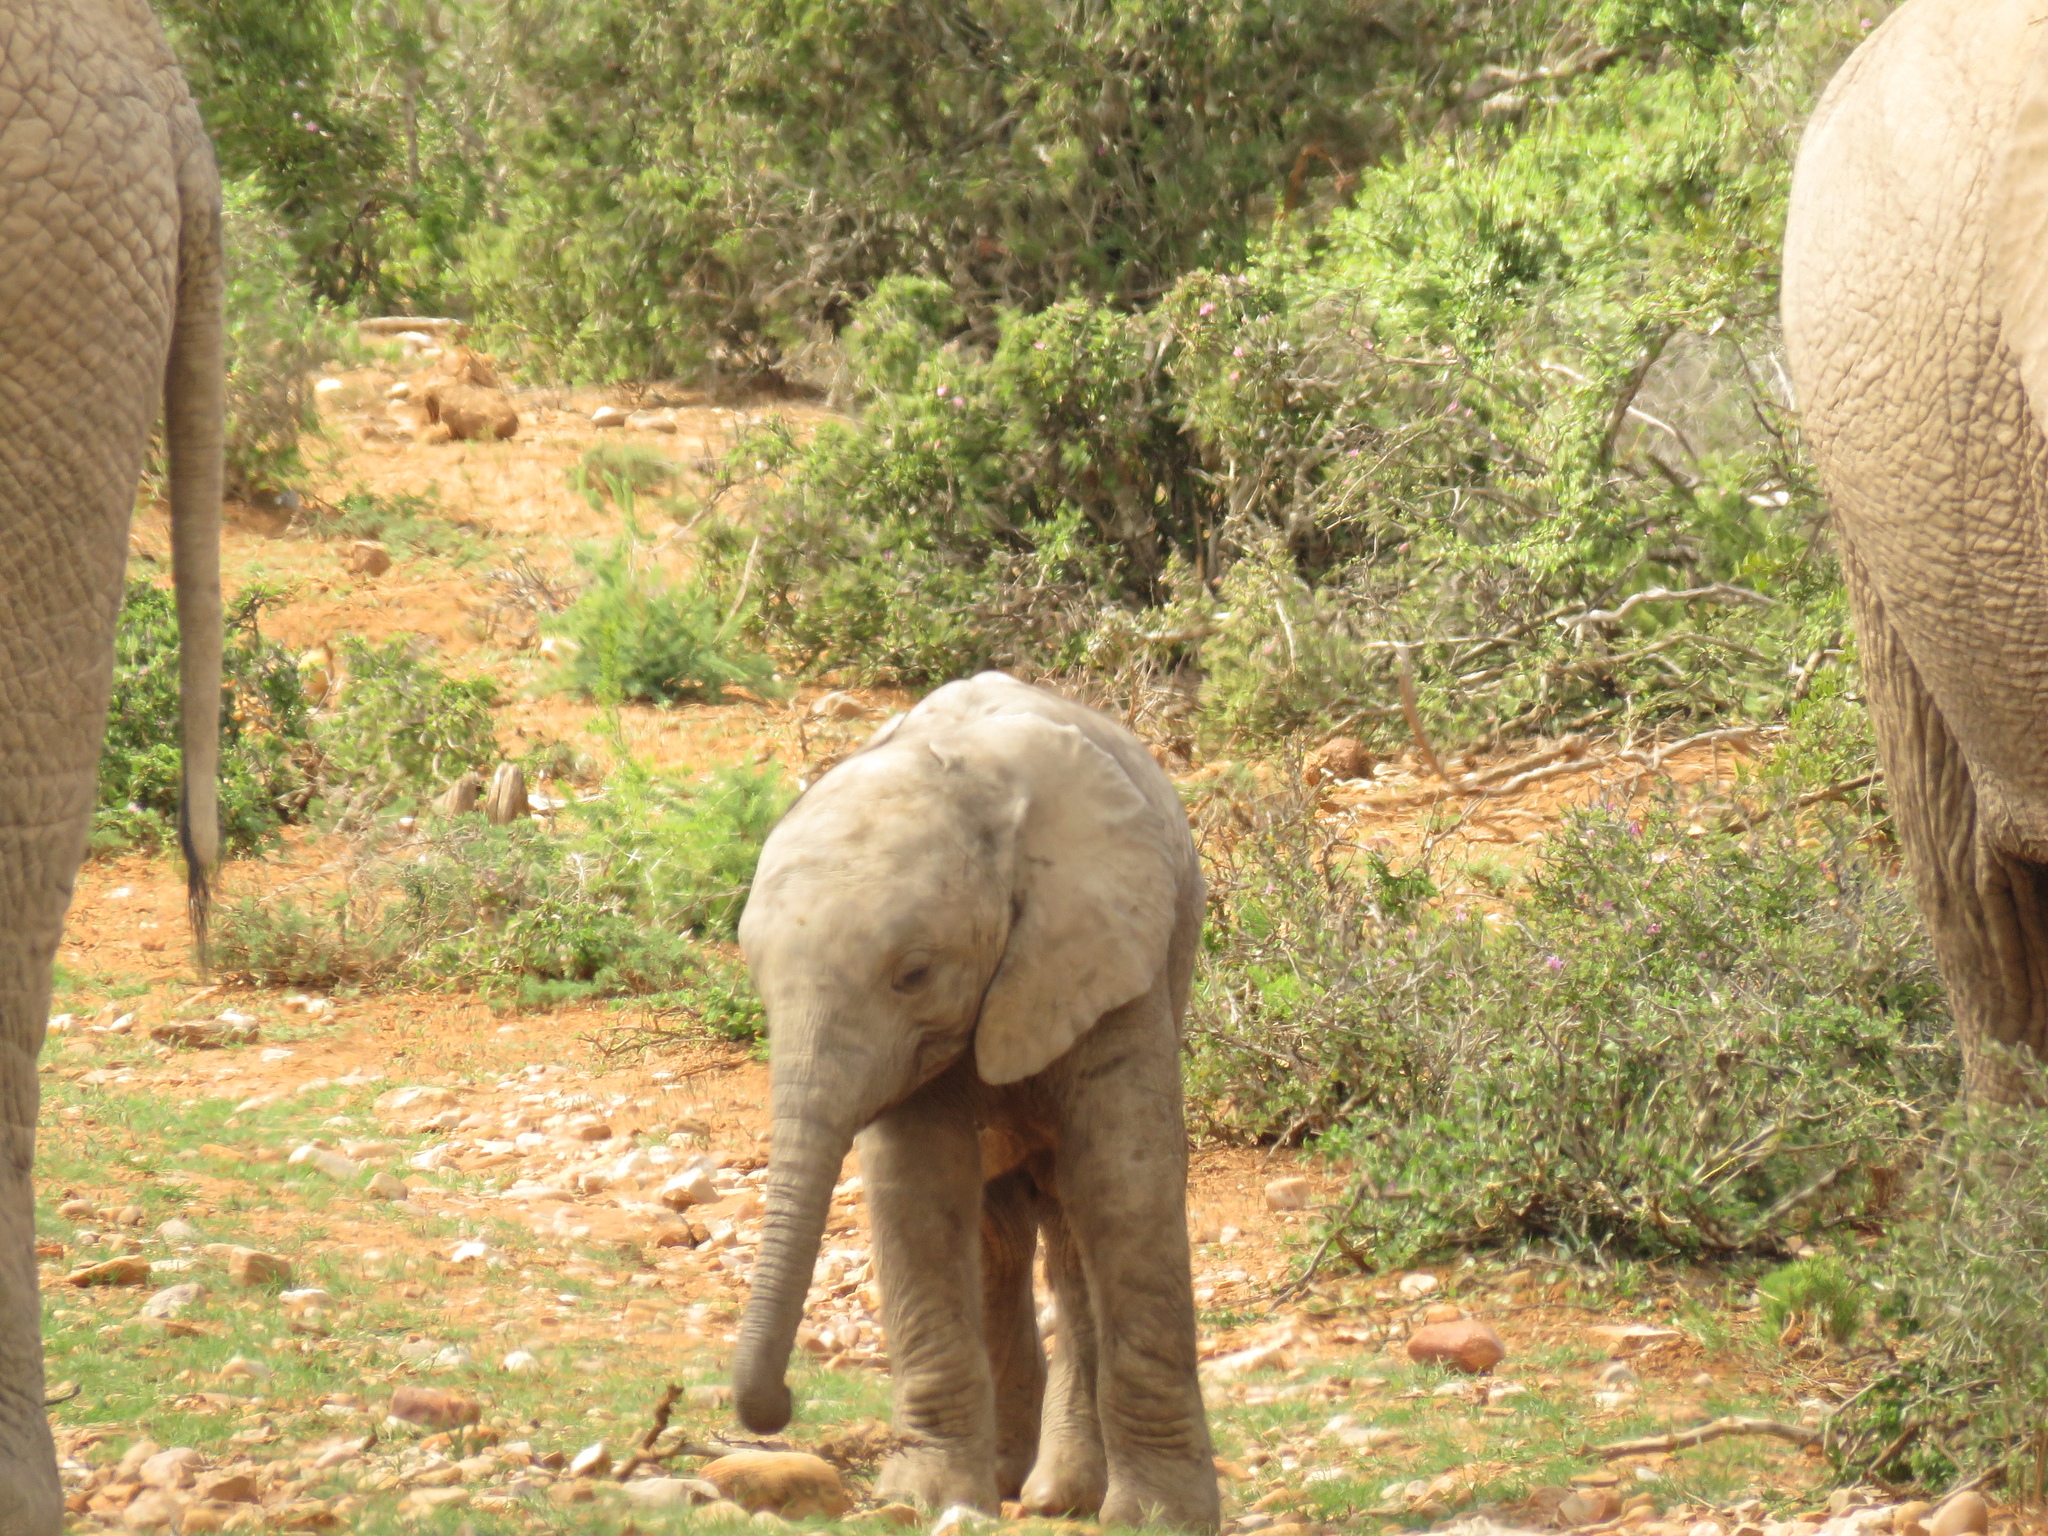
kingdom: Animalia
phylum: Chordata
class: Mammalia
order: Proboscidea
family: Elephantidae
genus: Loxodonta
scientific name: Loxodonta africana
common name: African elephant
